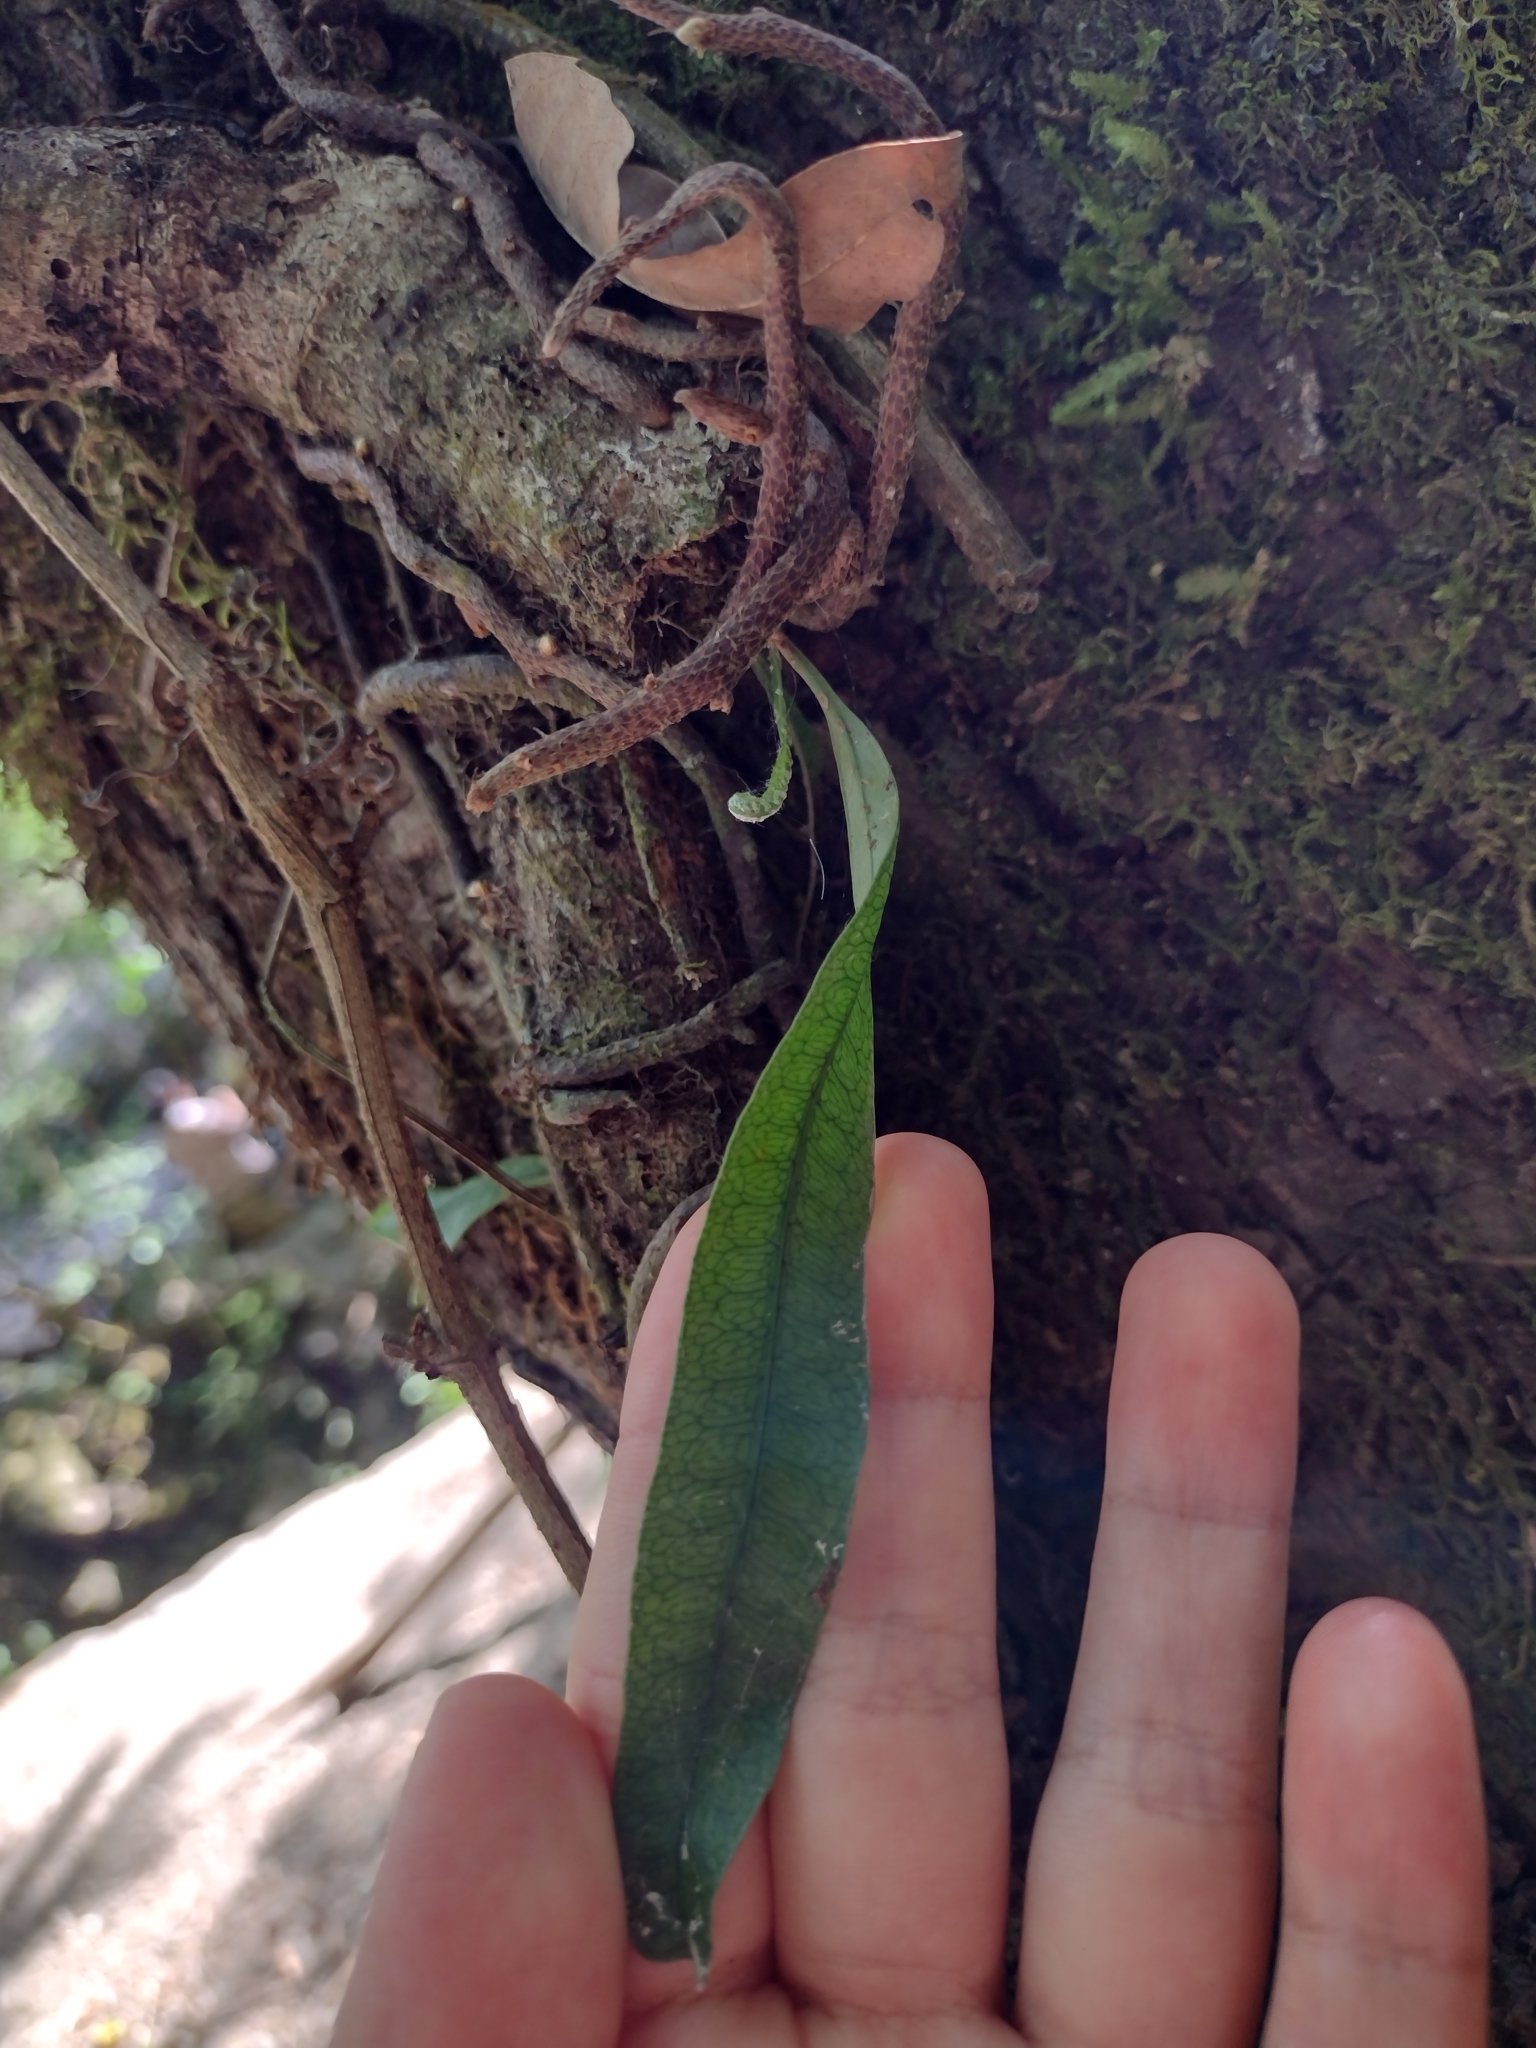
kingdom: Plantae
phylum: Tracheophyta
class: Polypodiopsida
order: Polypodiales
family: Polypodiaceae
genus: Microgramma
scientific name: Microgramma squamulosa
